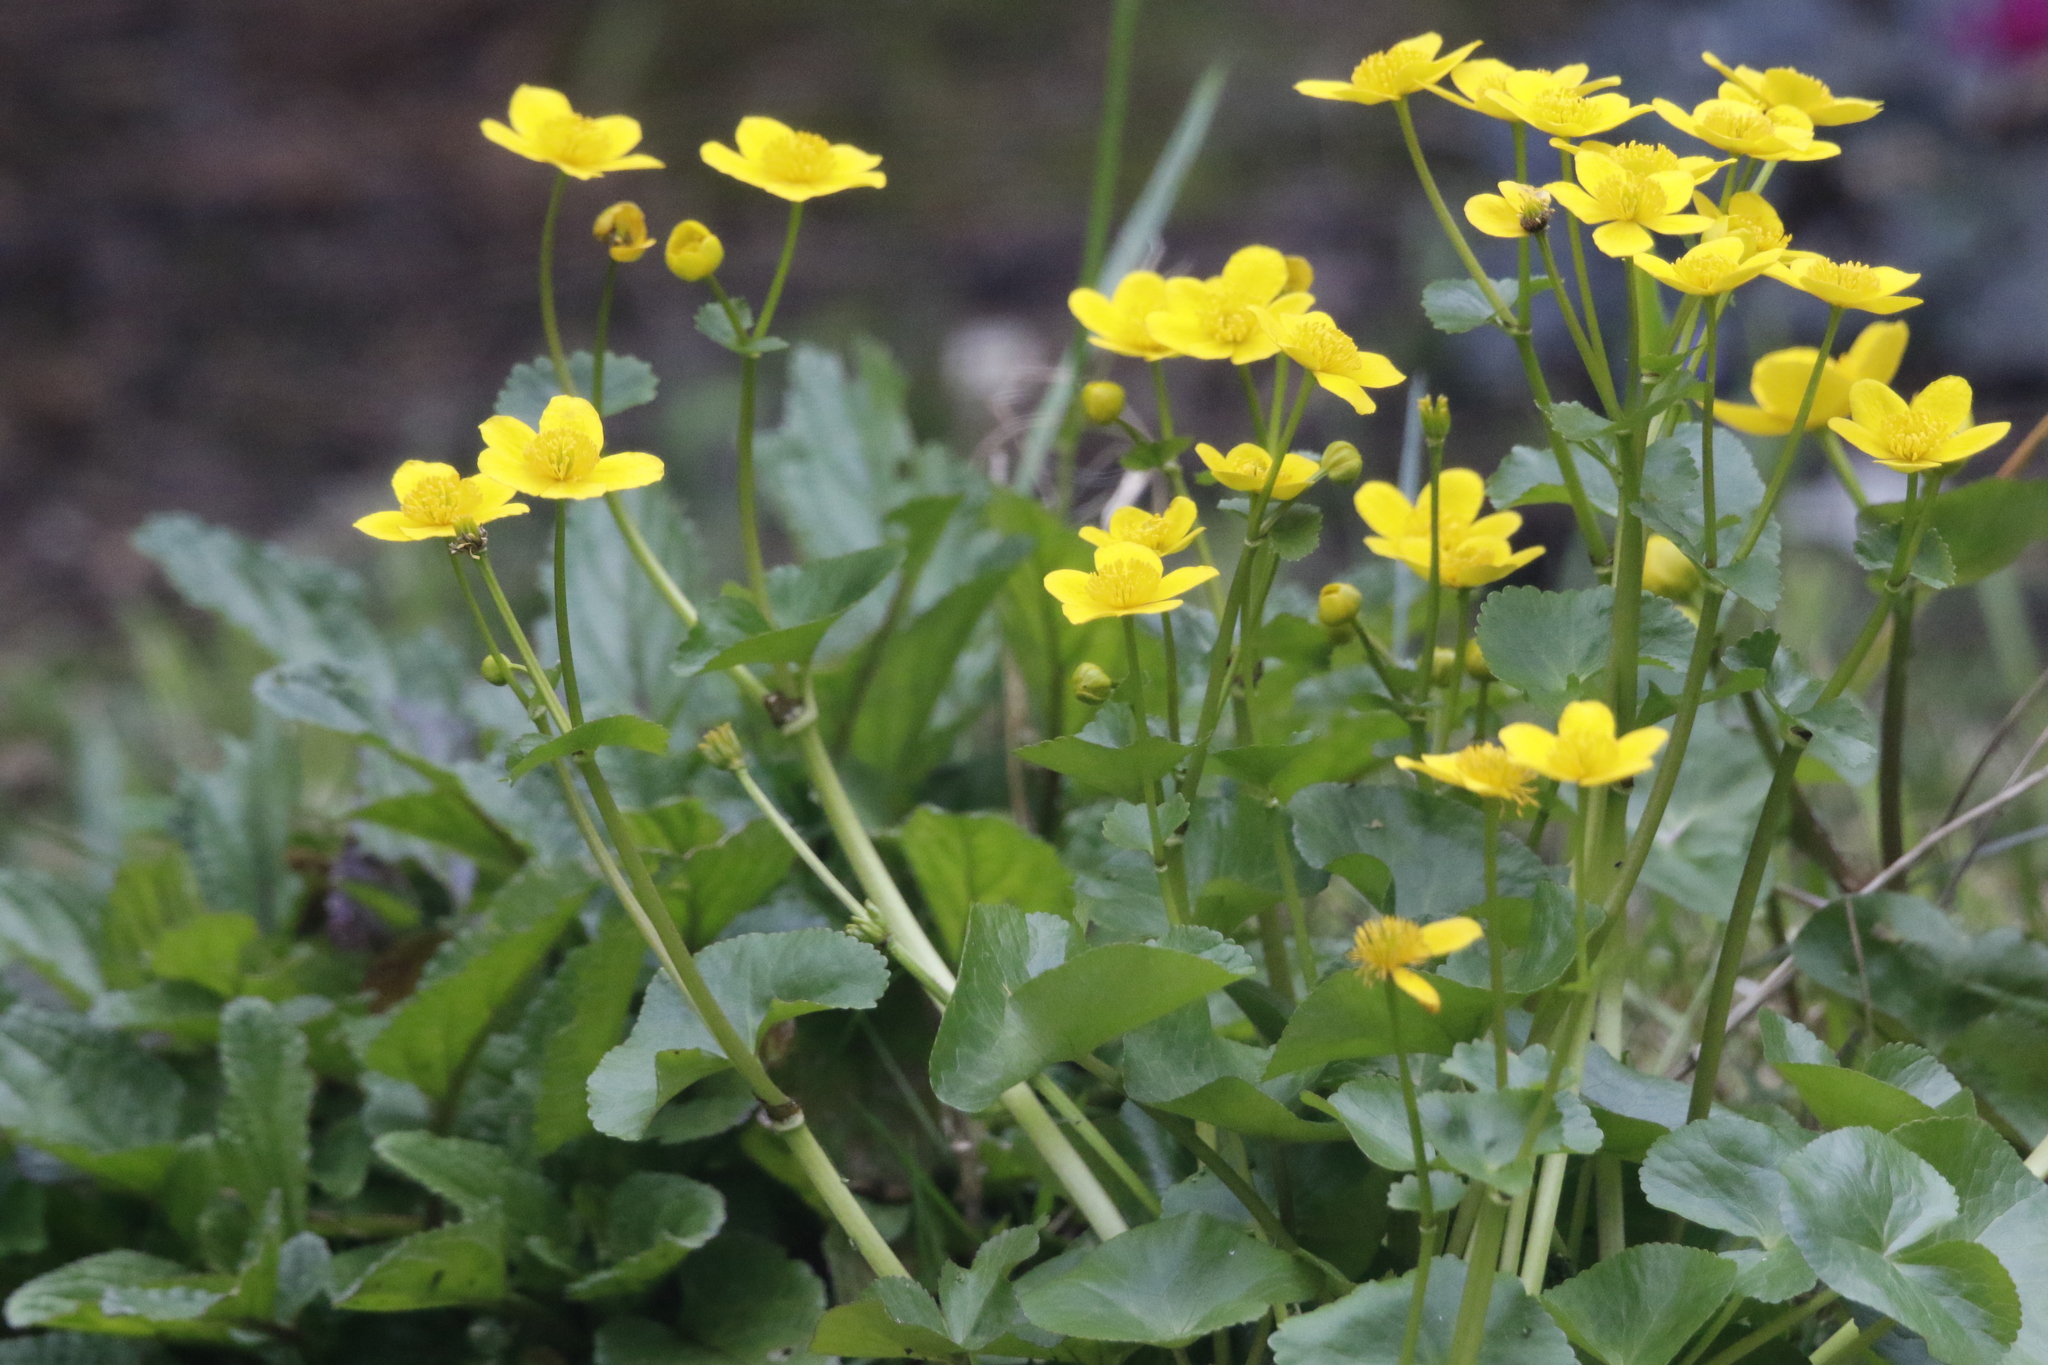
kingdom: Plantae
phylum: Tracheophyta
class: Magnoliopsida
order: Ranunculales
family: Ranunculaceae
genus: Caltha
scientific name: Caltha palustris
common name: Marsh marigold
